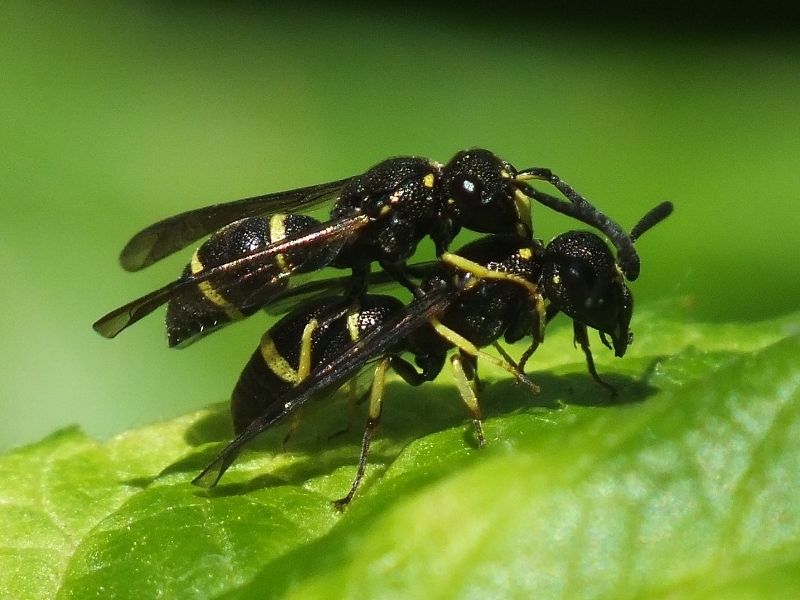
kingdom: Animalia
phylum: Arthropoda
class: Insecta
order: Hymenoptera
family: Eumenidae
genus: Stenodynerus
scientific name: Stenodynerus
